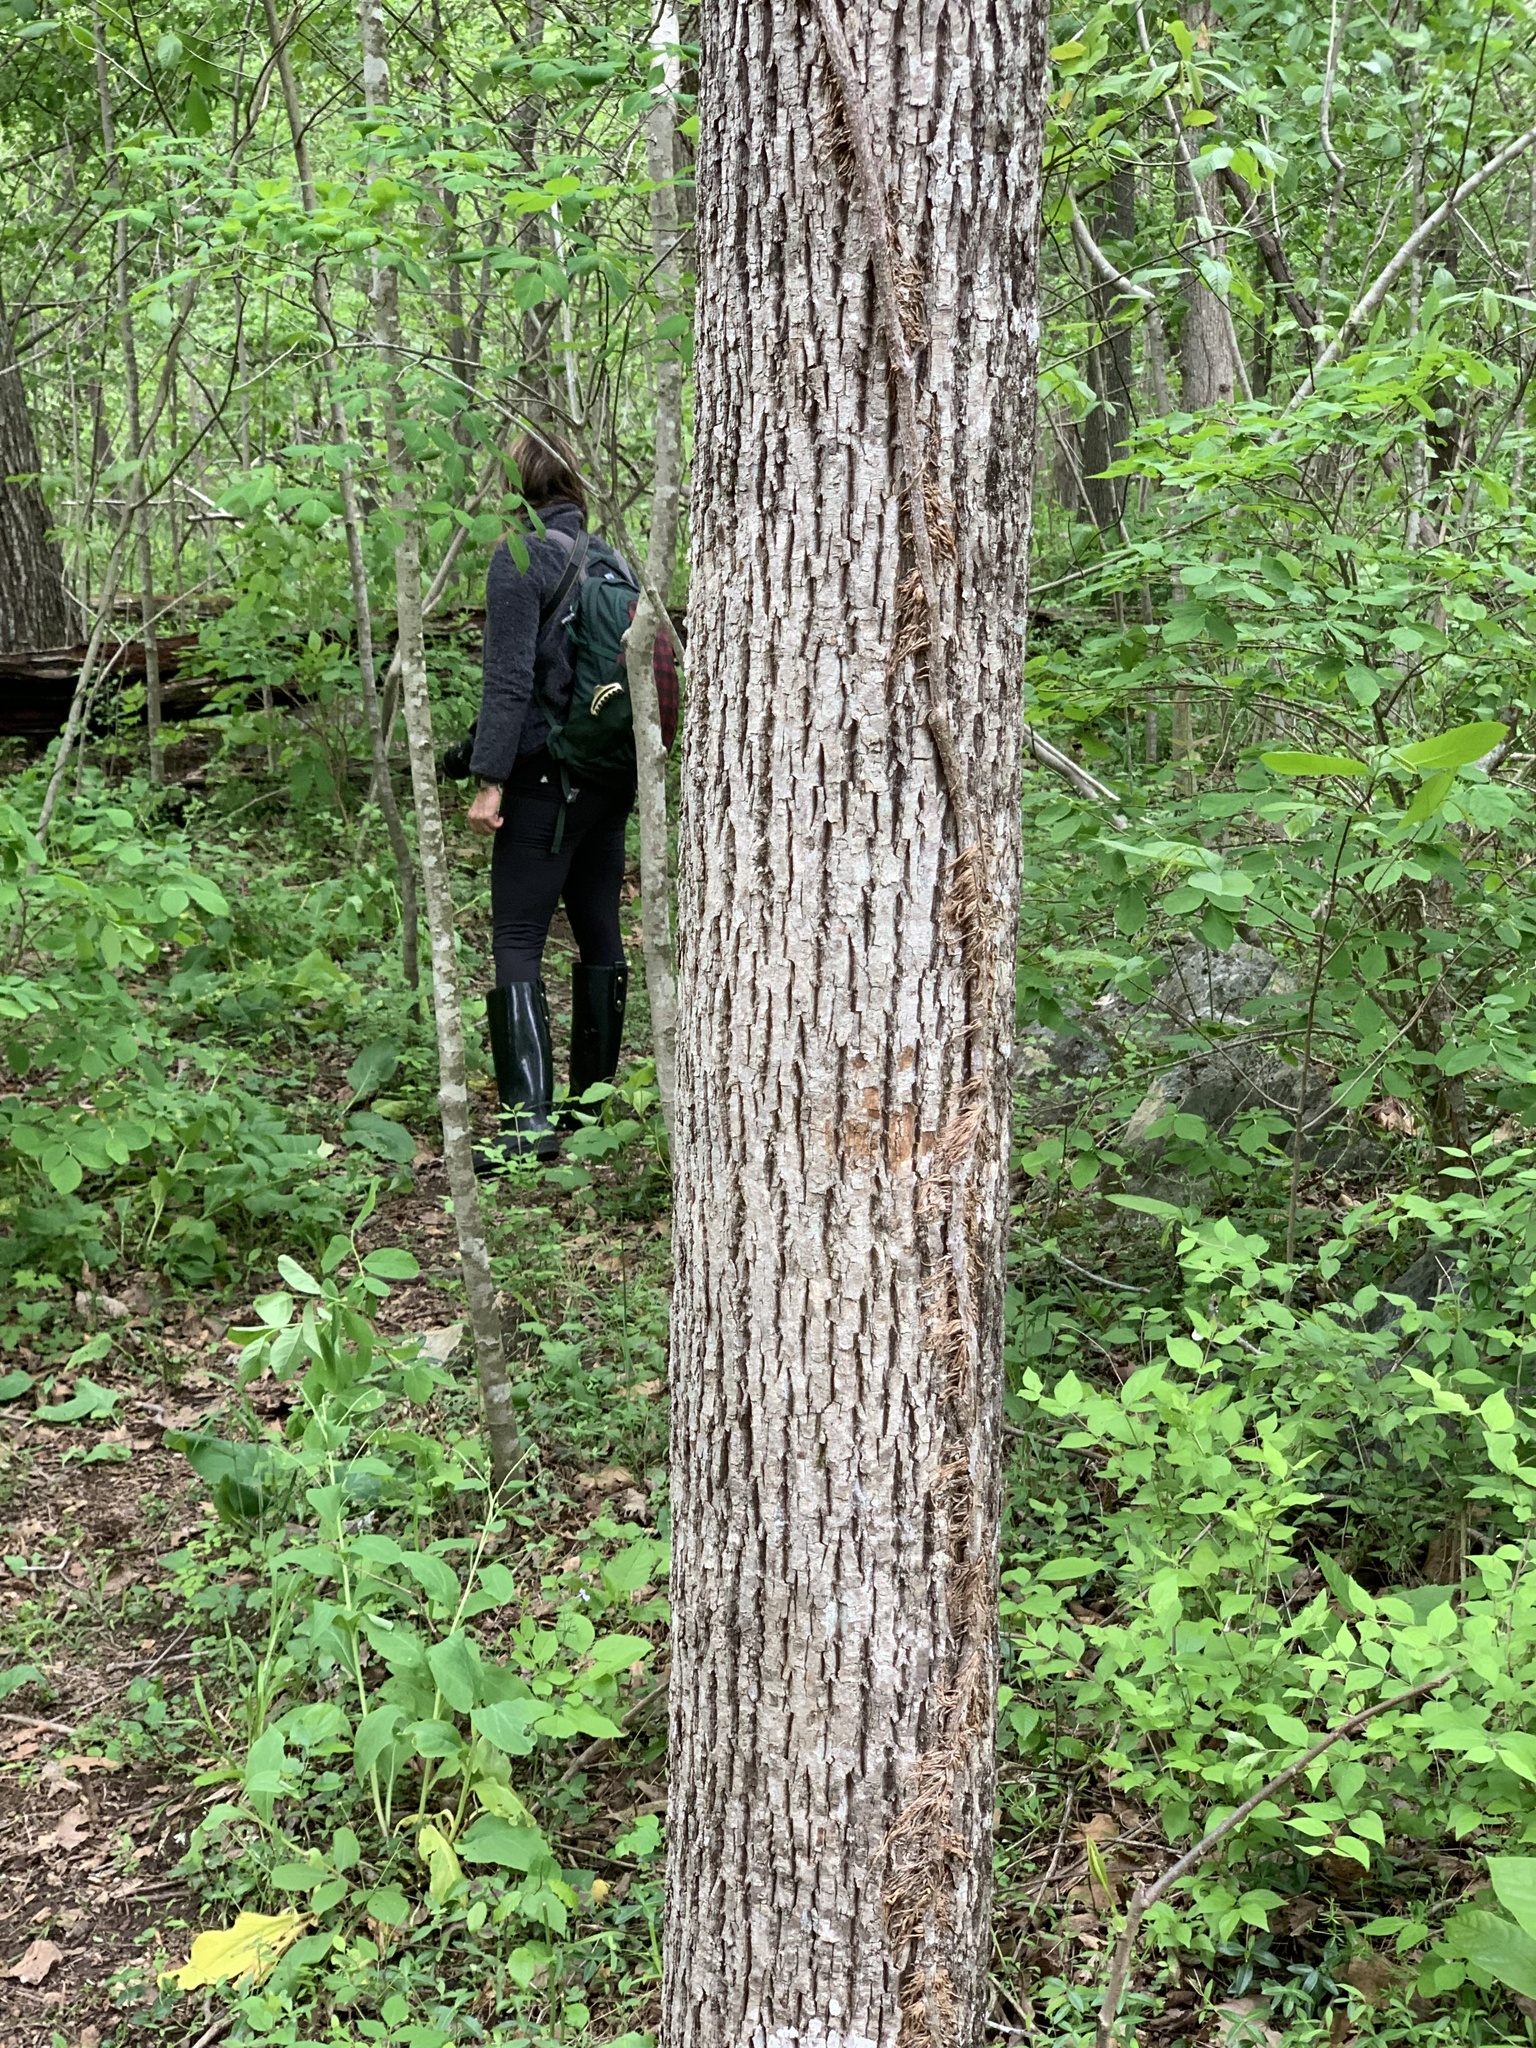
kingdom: Plantae
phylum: Tracheophyta
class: Magnoliopsida
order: Malvales
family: Malvaceae
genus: Tilia
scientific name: Tilia americana
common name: Basswood
